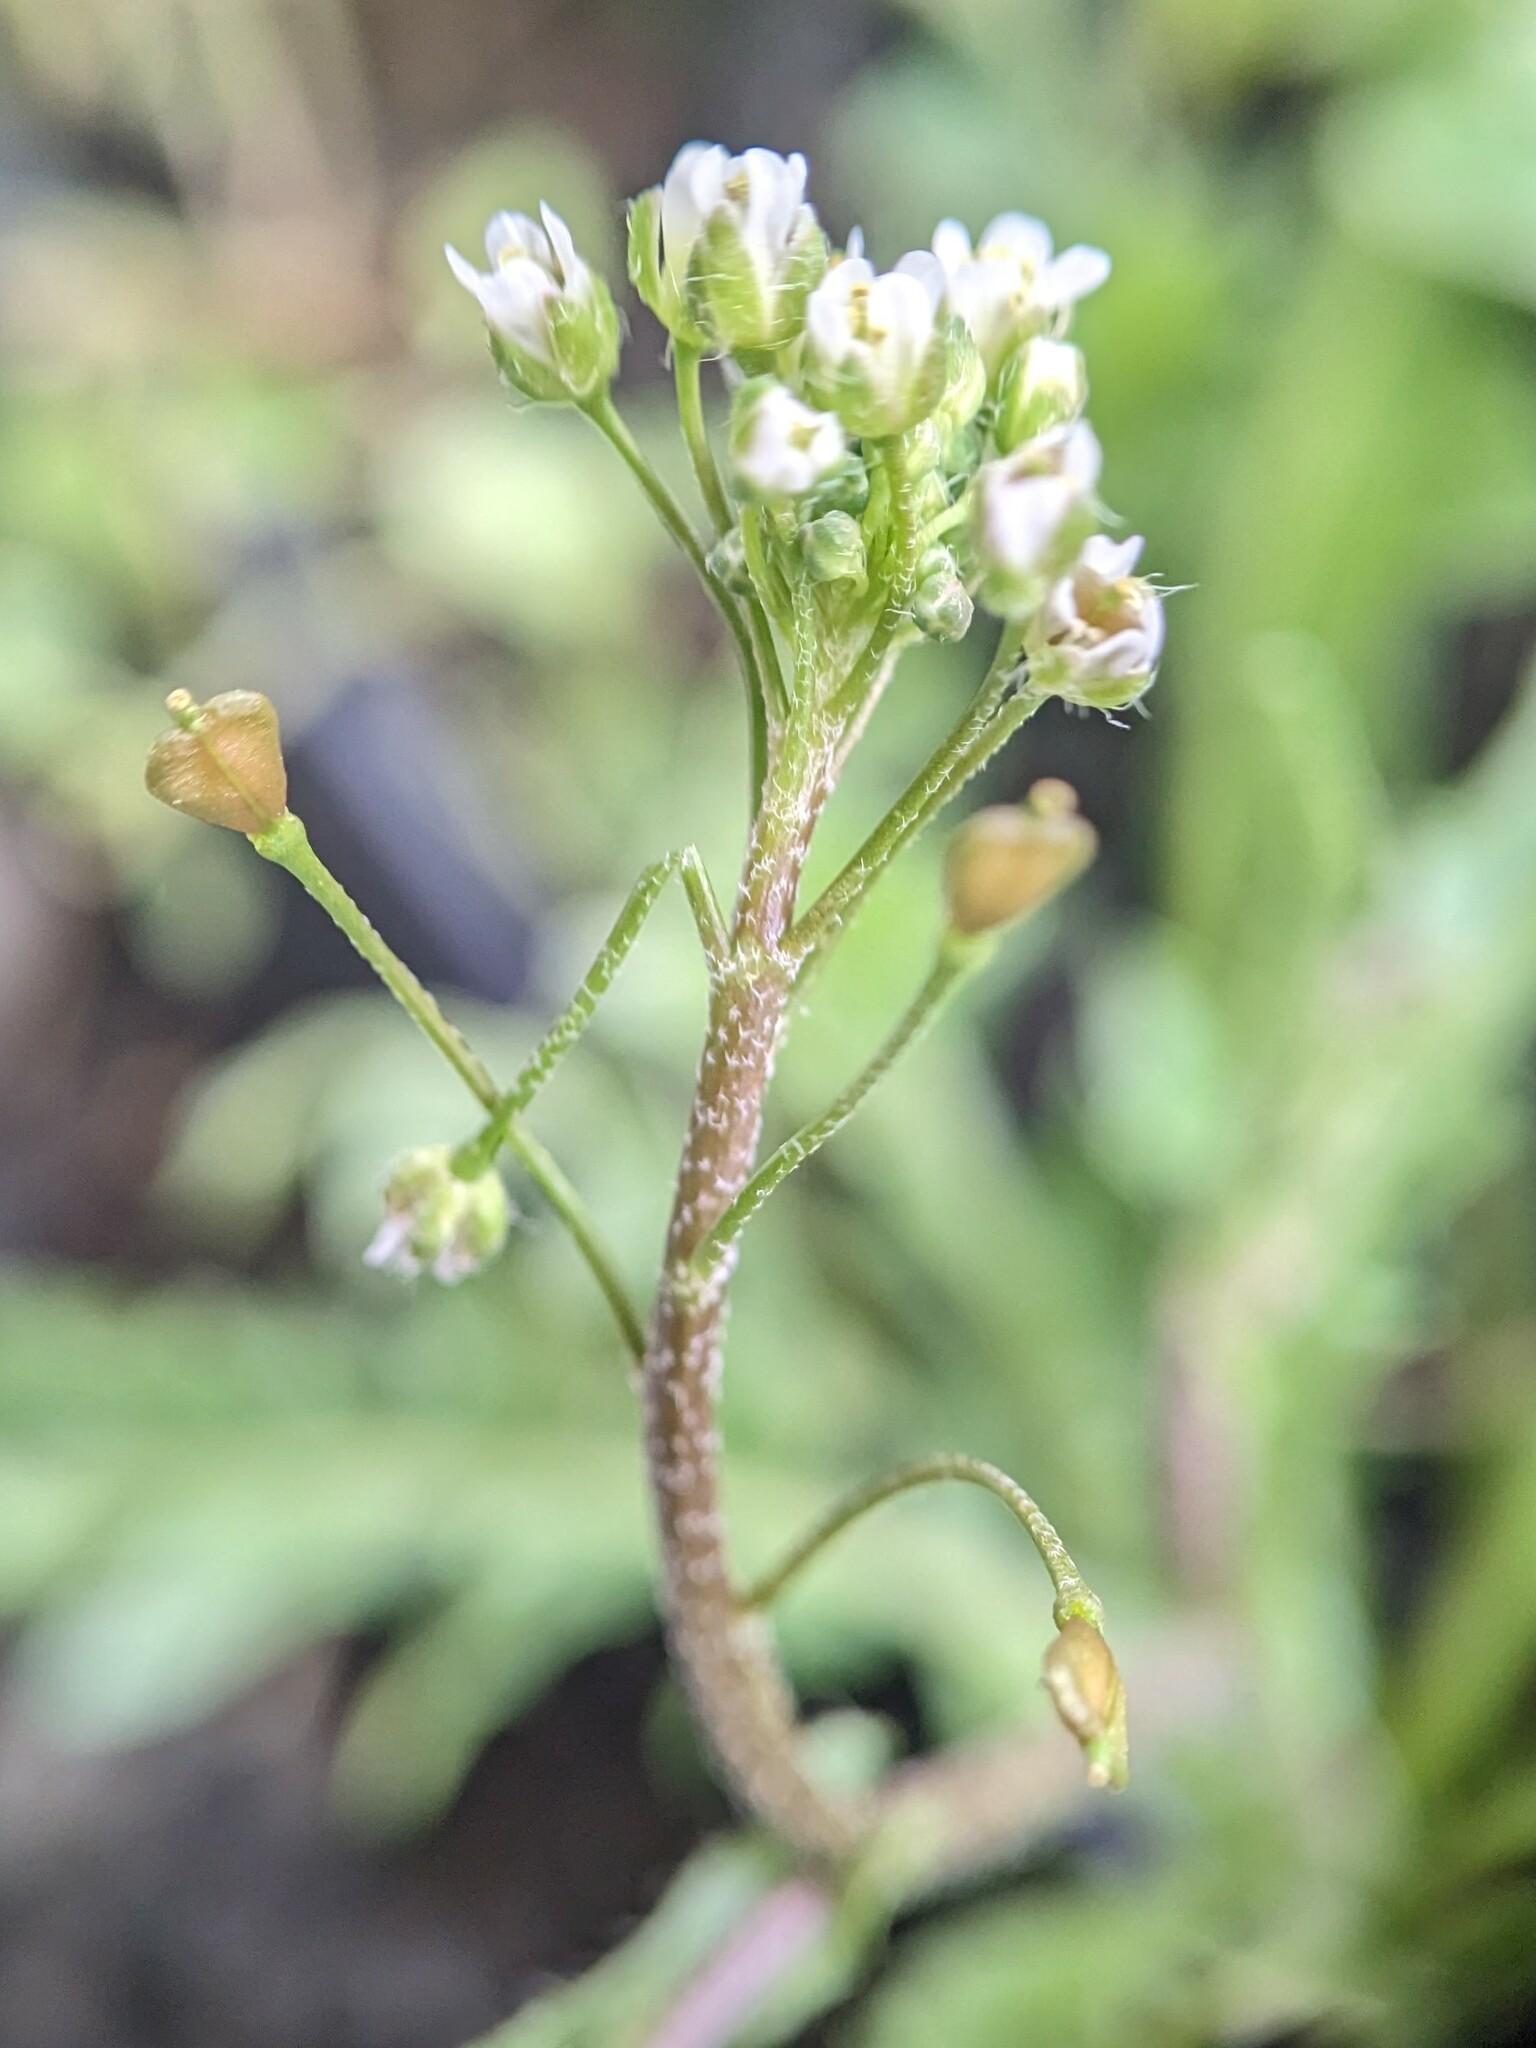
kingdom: Plantae
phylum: Tracheophyta
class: Magnoliopsida
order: Brassicales
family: Brassicaceae
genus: Capsella
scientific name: Capsella bursa-pastoris
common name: Shepherd's purse
